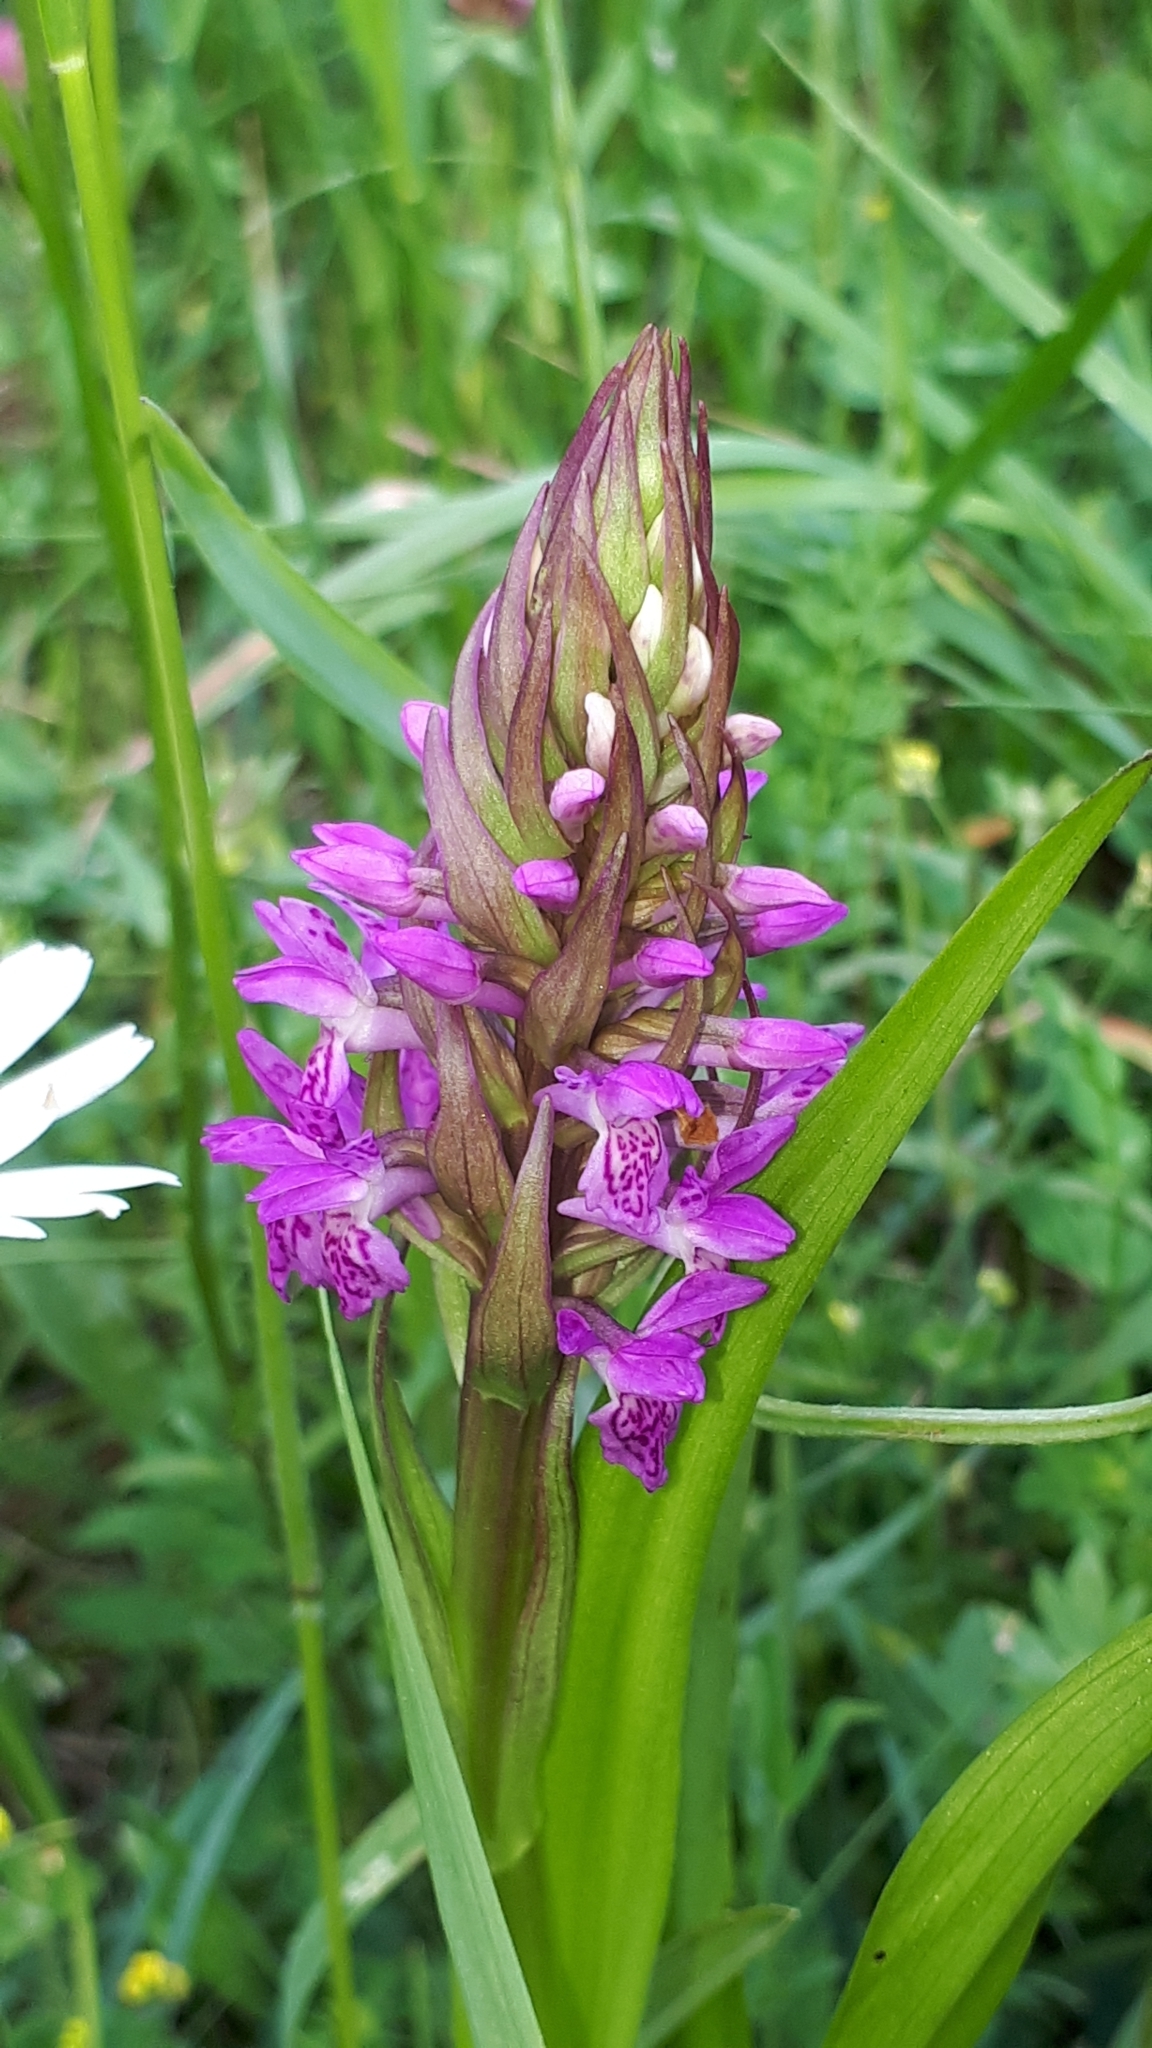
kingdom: Plantae
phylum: Tracheophyta
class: Liliopsida
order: Asparagales
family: Orchidaceae
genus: Dactylorhiza
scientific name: Dactylorhiza incarnata
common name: Early marsh-orchid
